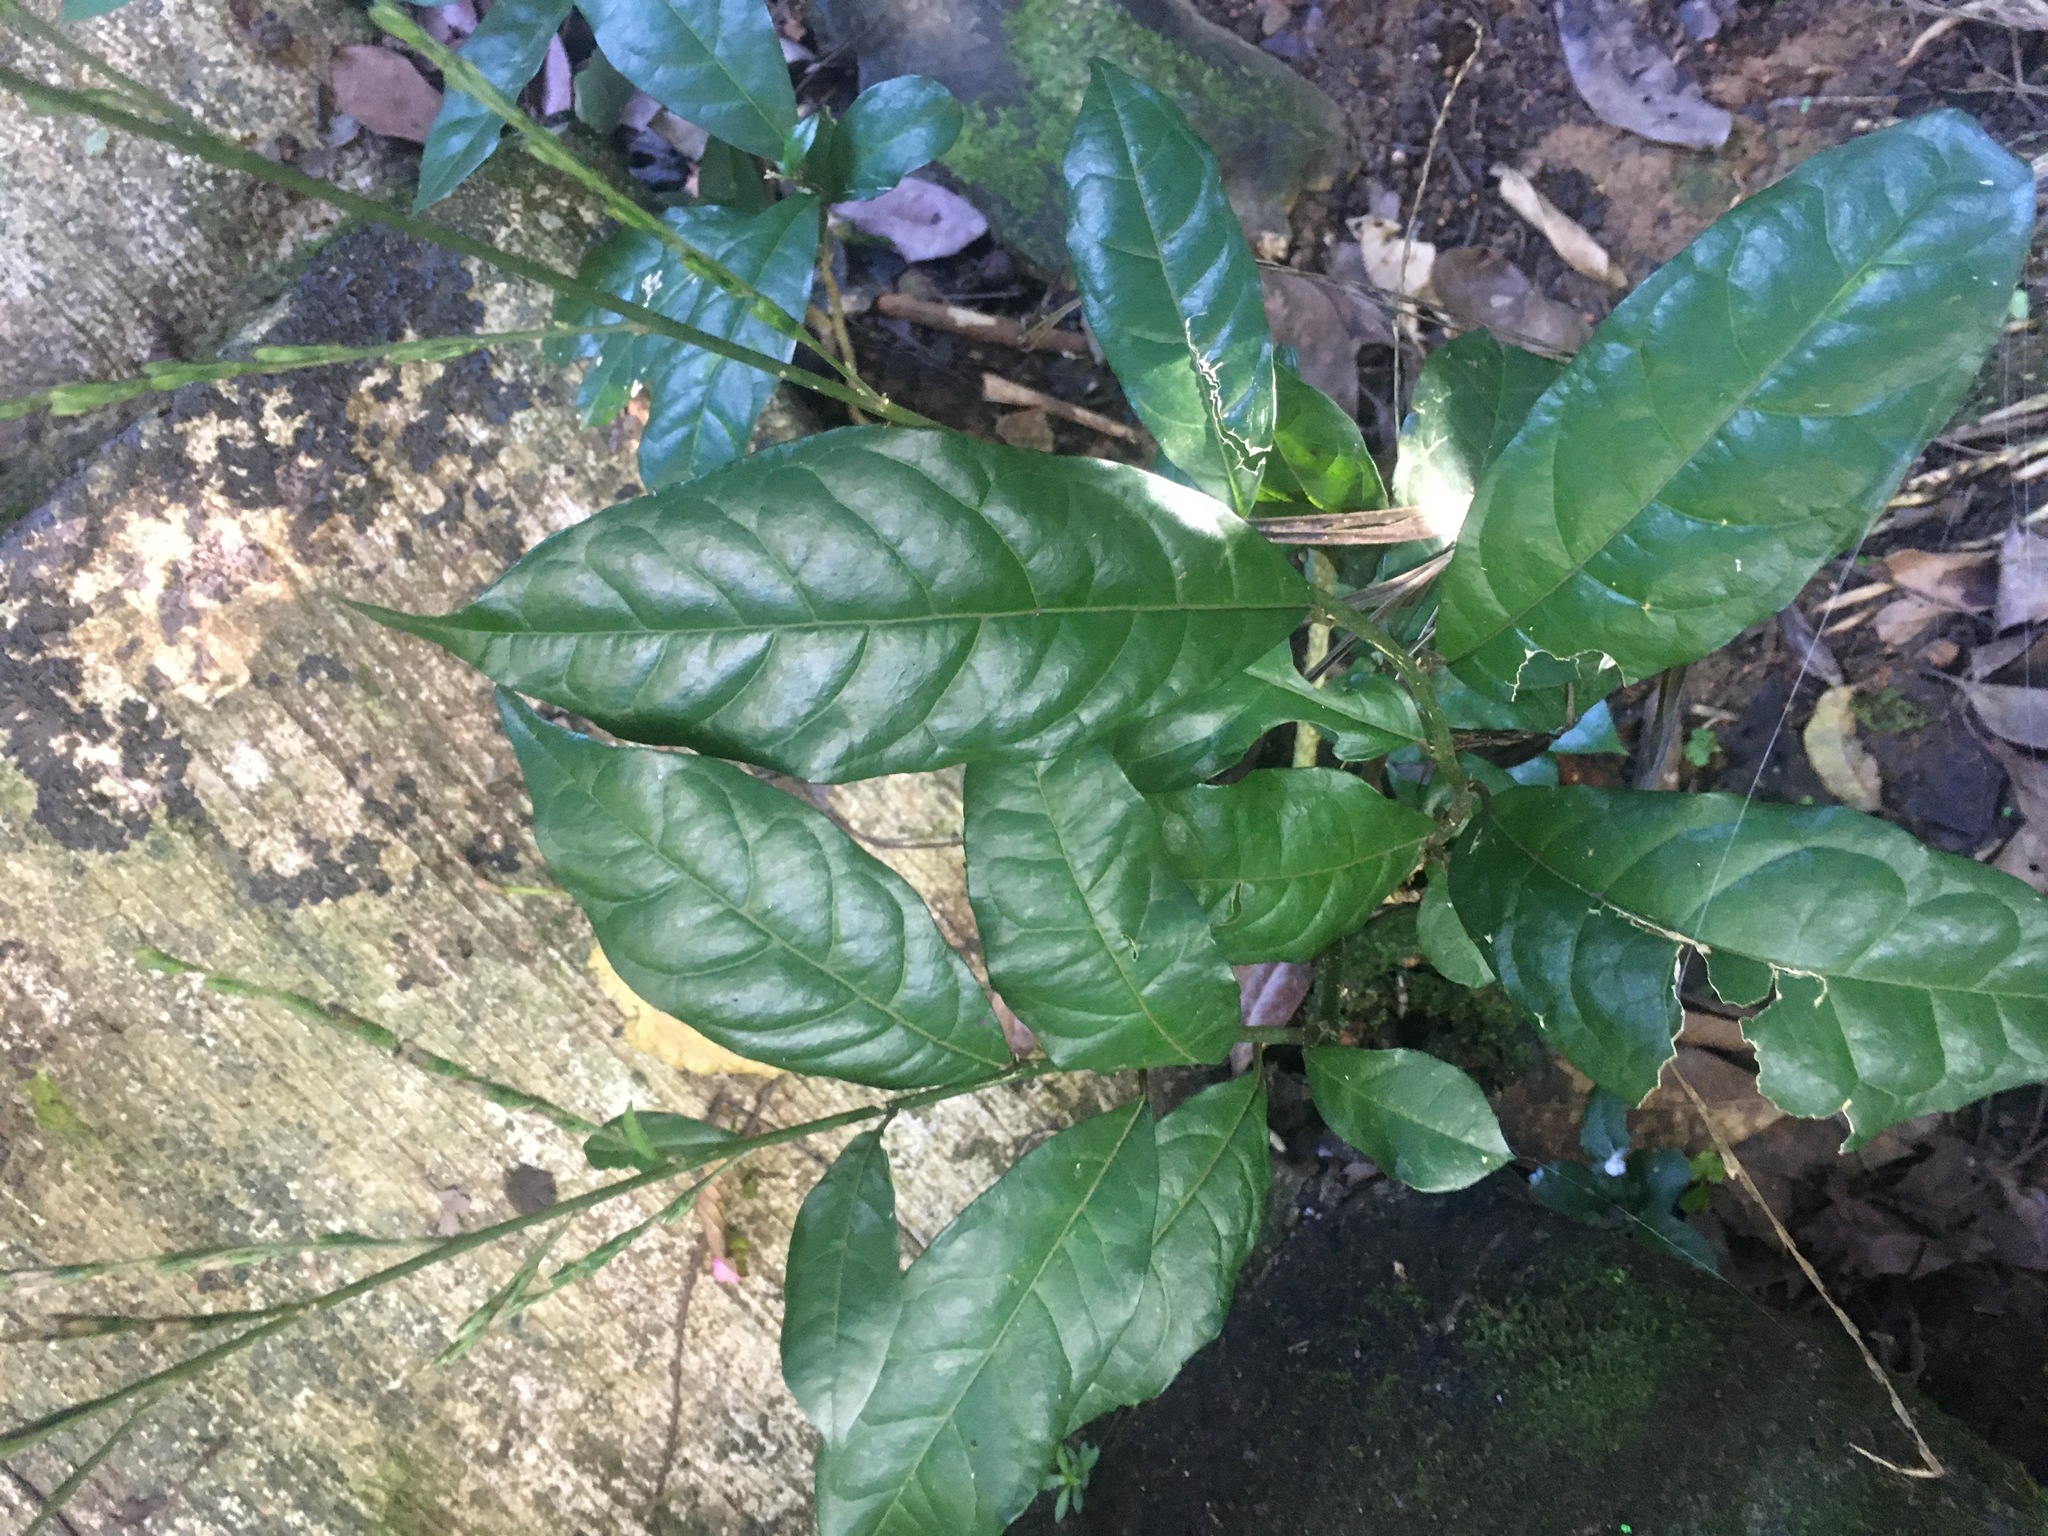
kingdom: Plantae
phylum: Tracheophyta
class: Magnoliopsida
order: Caryophyllales
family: Phytolaccaceae
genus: Petiveria
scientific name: Petiveria alliacea
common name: Garlicweed
